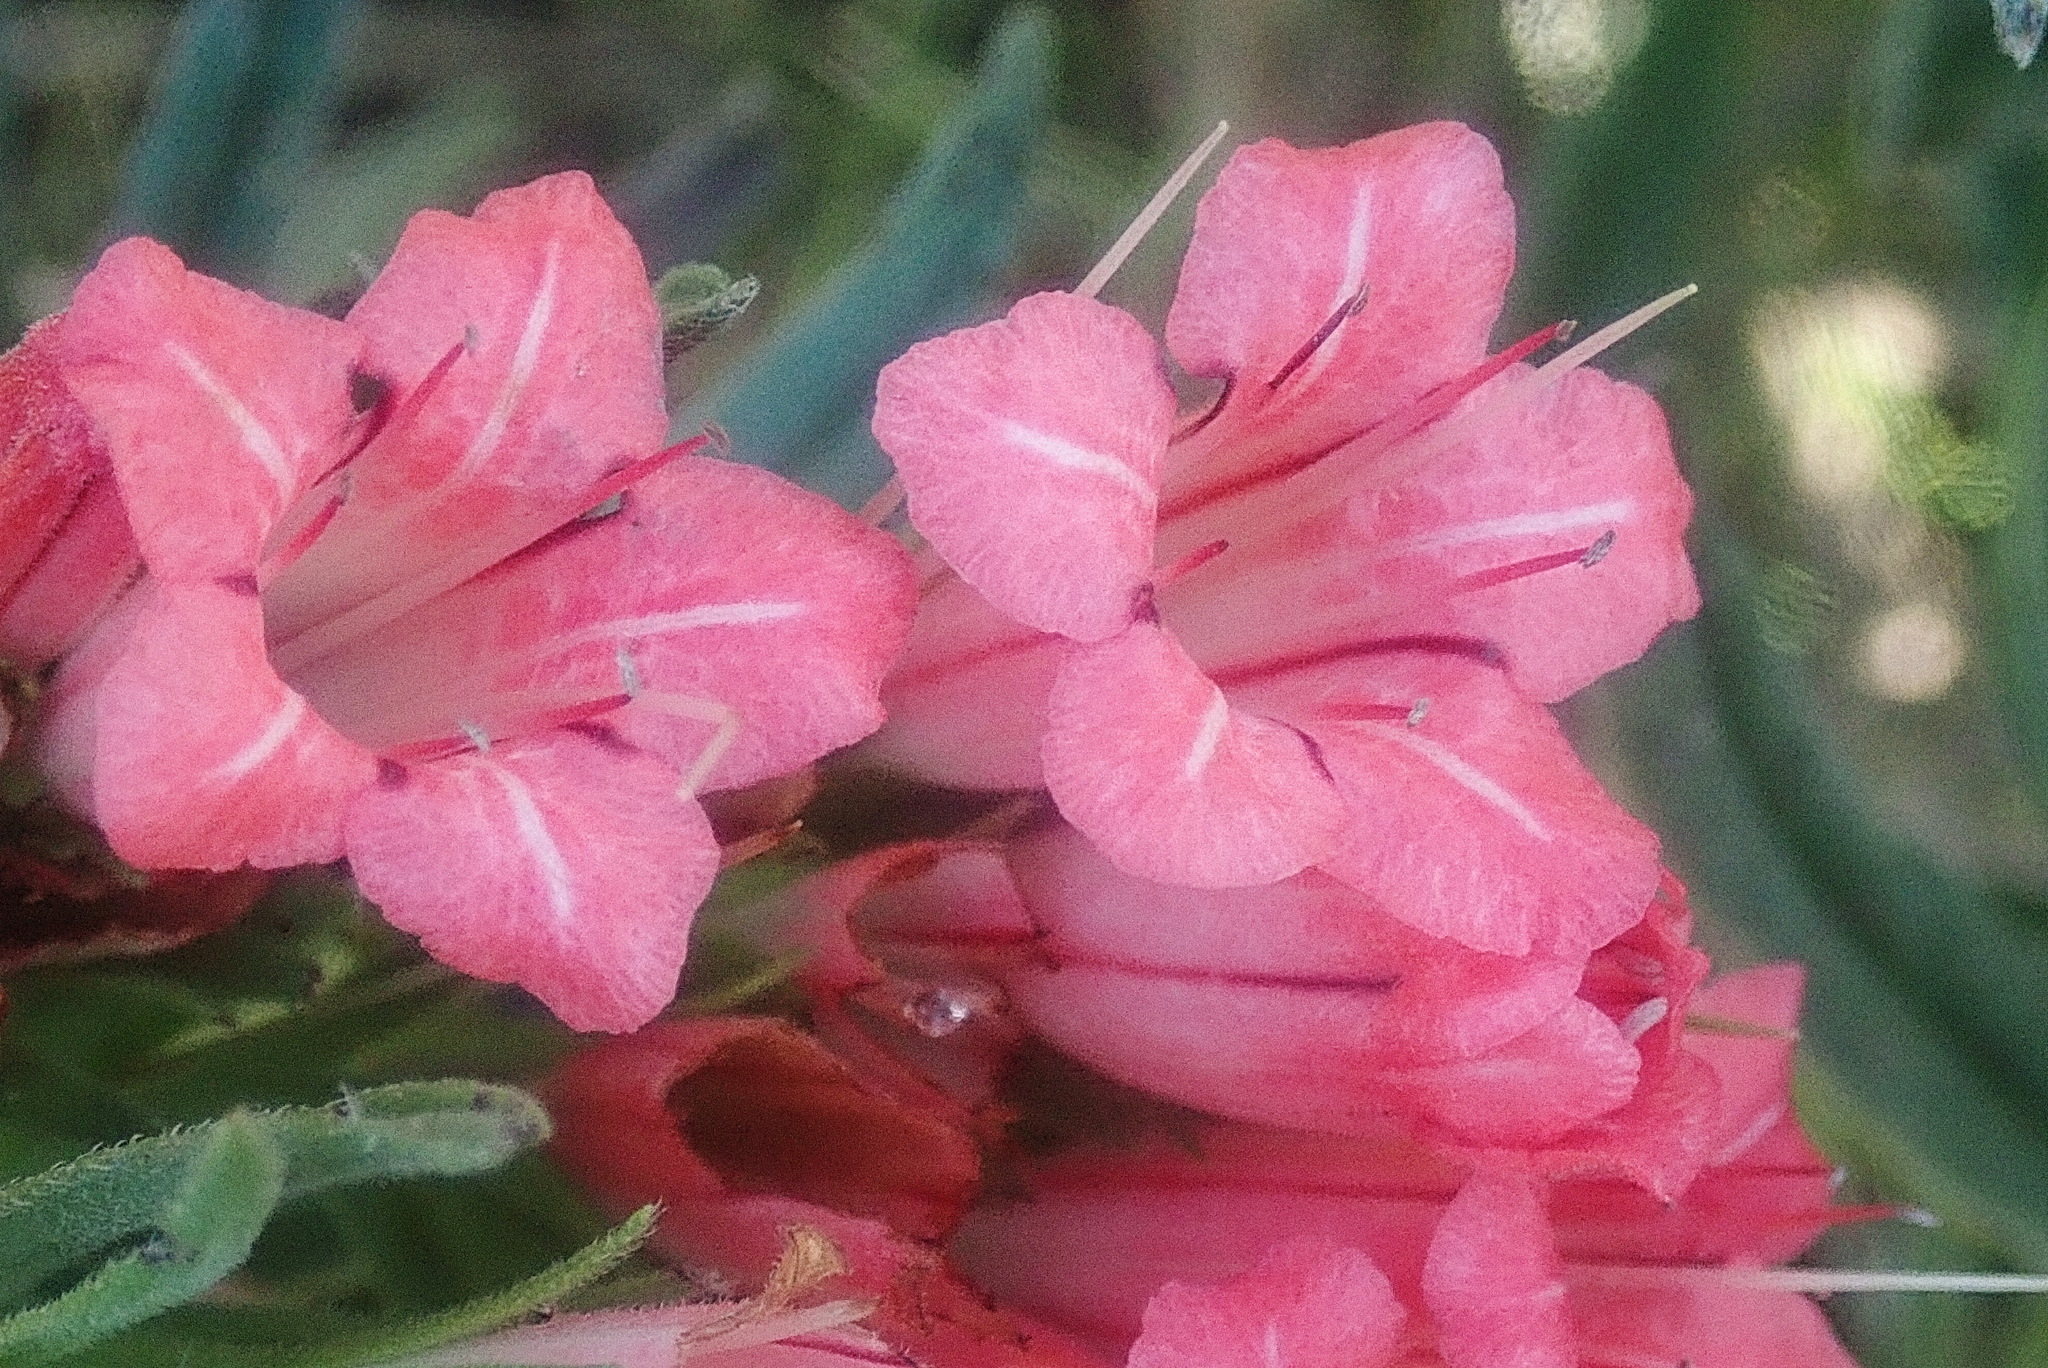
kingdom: Plantae
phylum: Tracheophyta
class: Magnoliopsida
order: Boraginales
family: Boraginaceae
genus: Lobostemon
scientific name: Lobostemon belliformis
